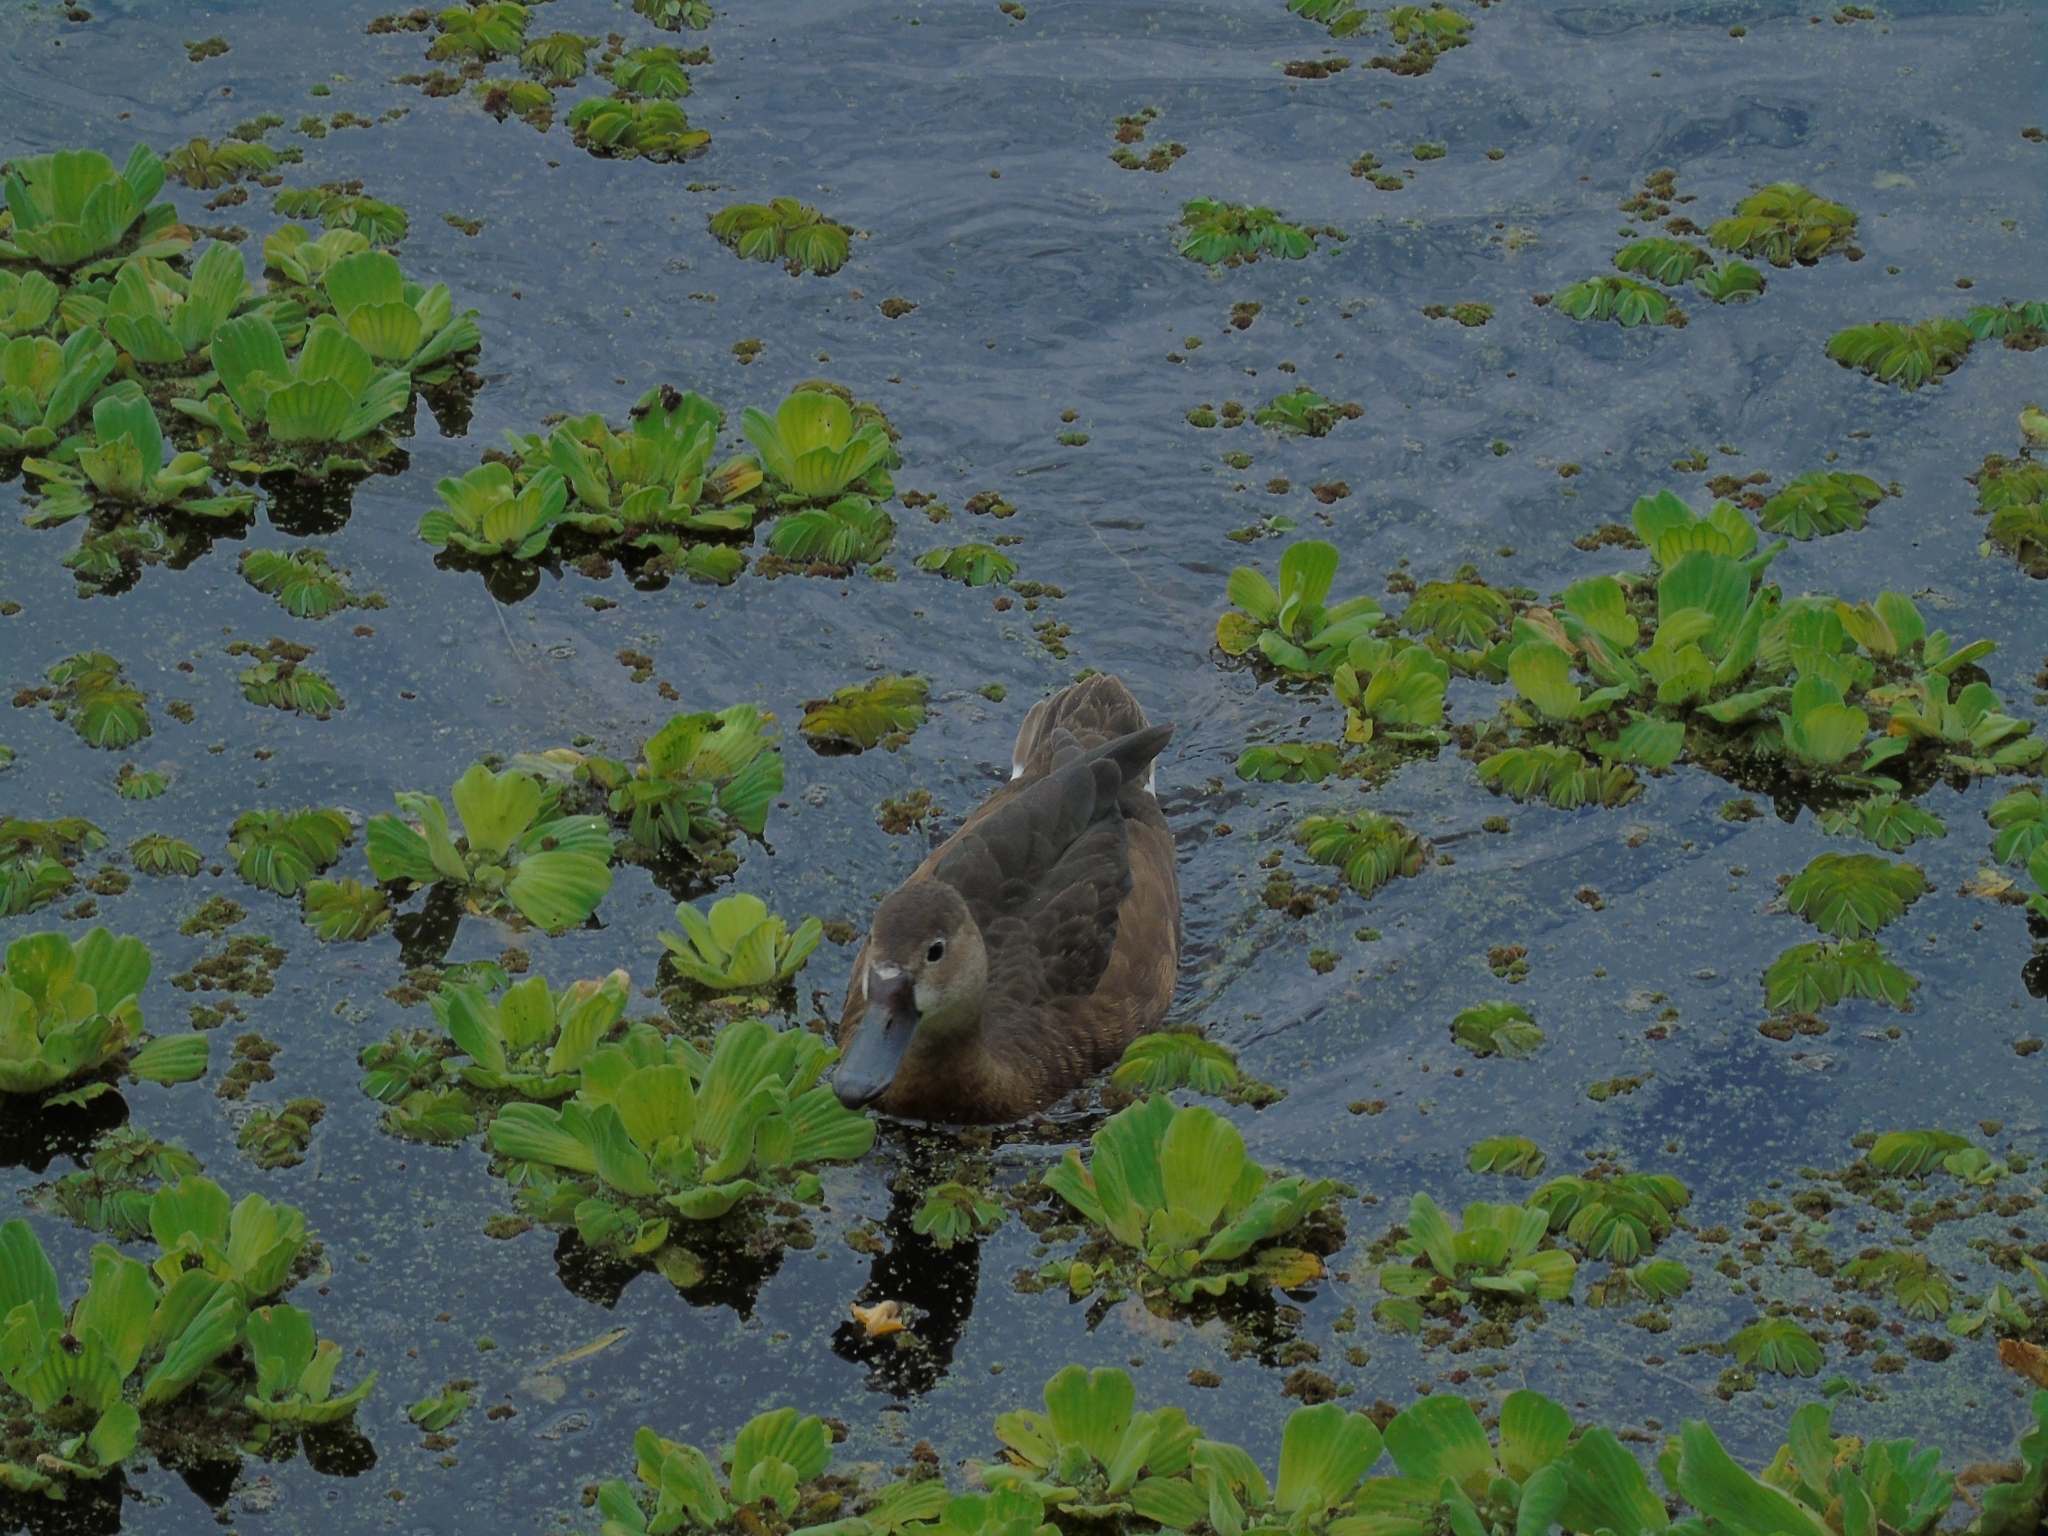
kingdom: Plantae
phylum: Tracheophyta
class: Liliopsida
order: Alismatales
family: Araceae
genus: Pistia
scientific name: Pistia stratiotes
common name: Water lettuce
